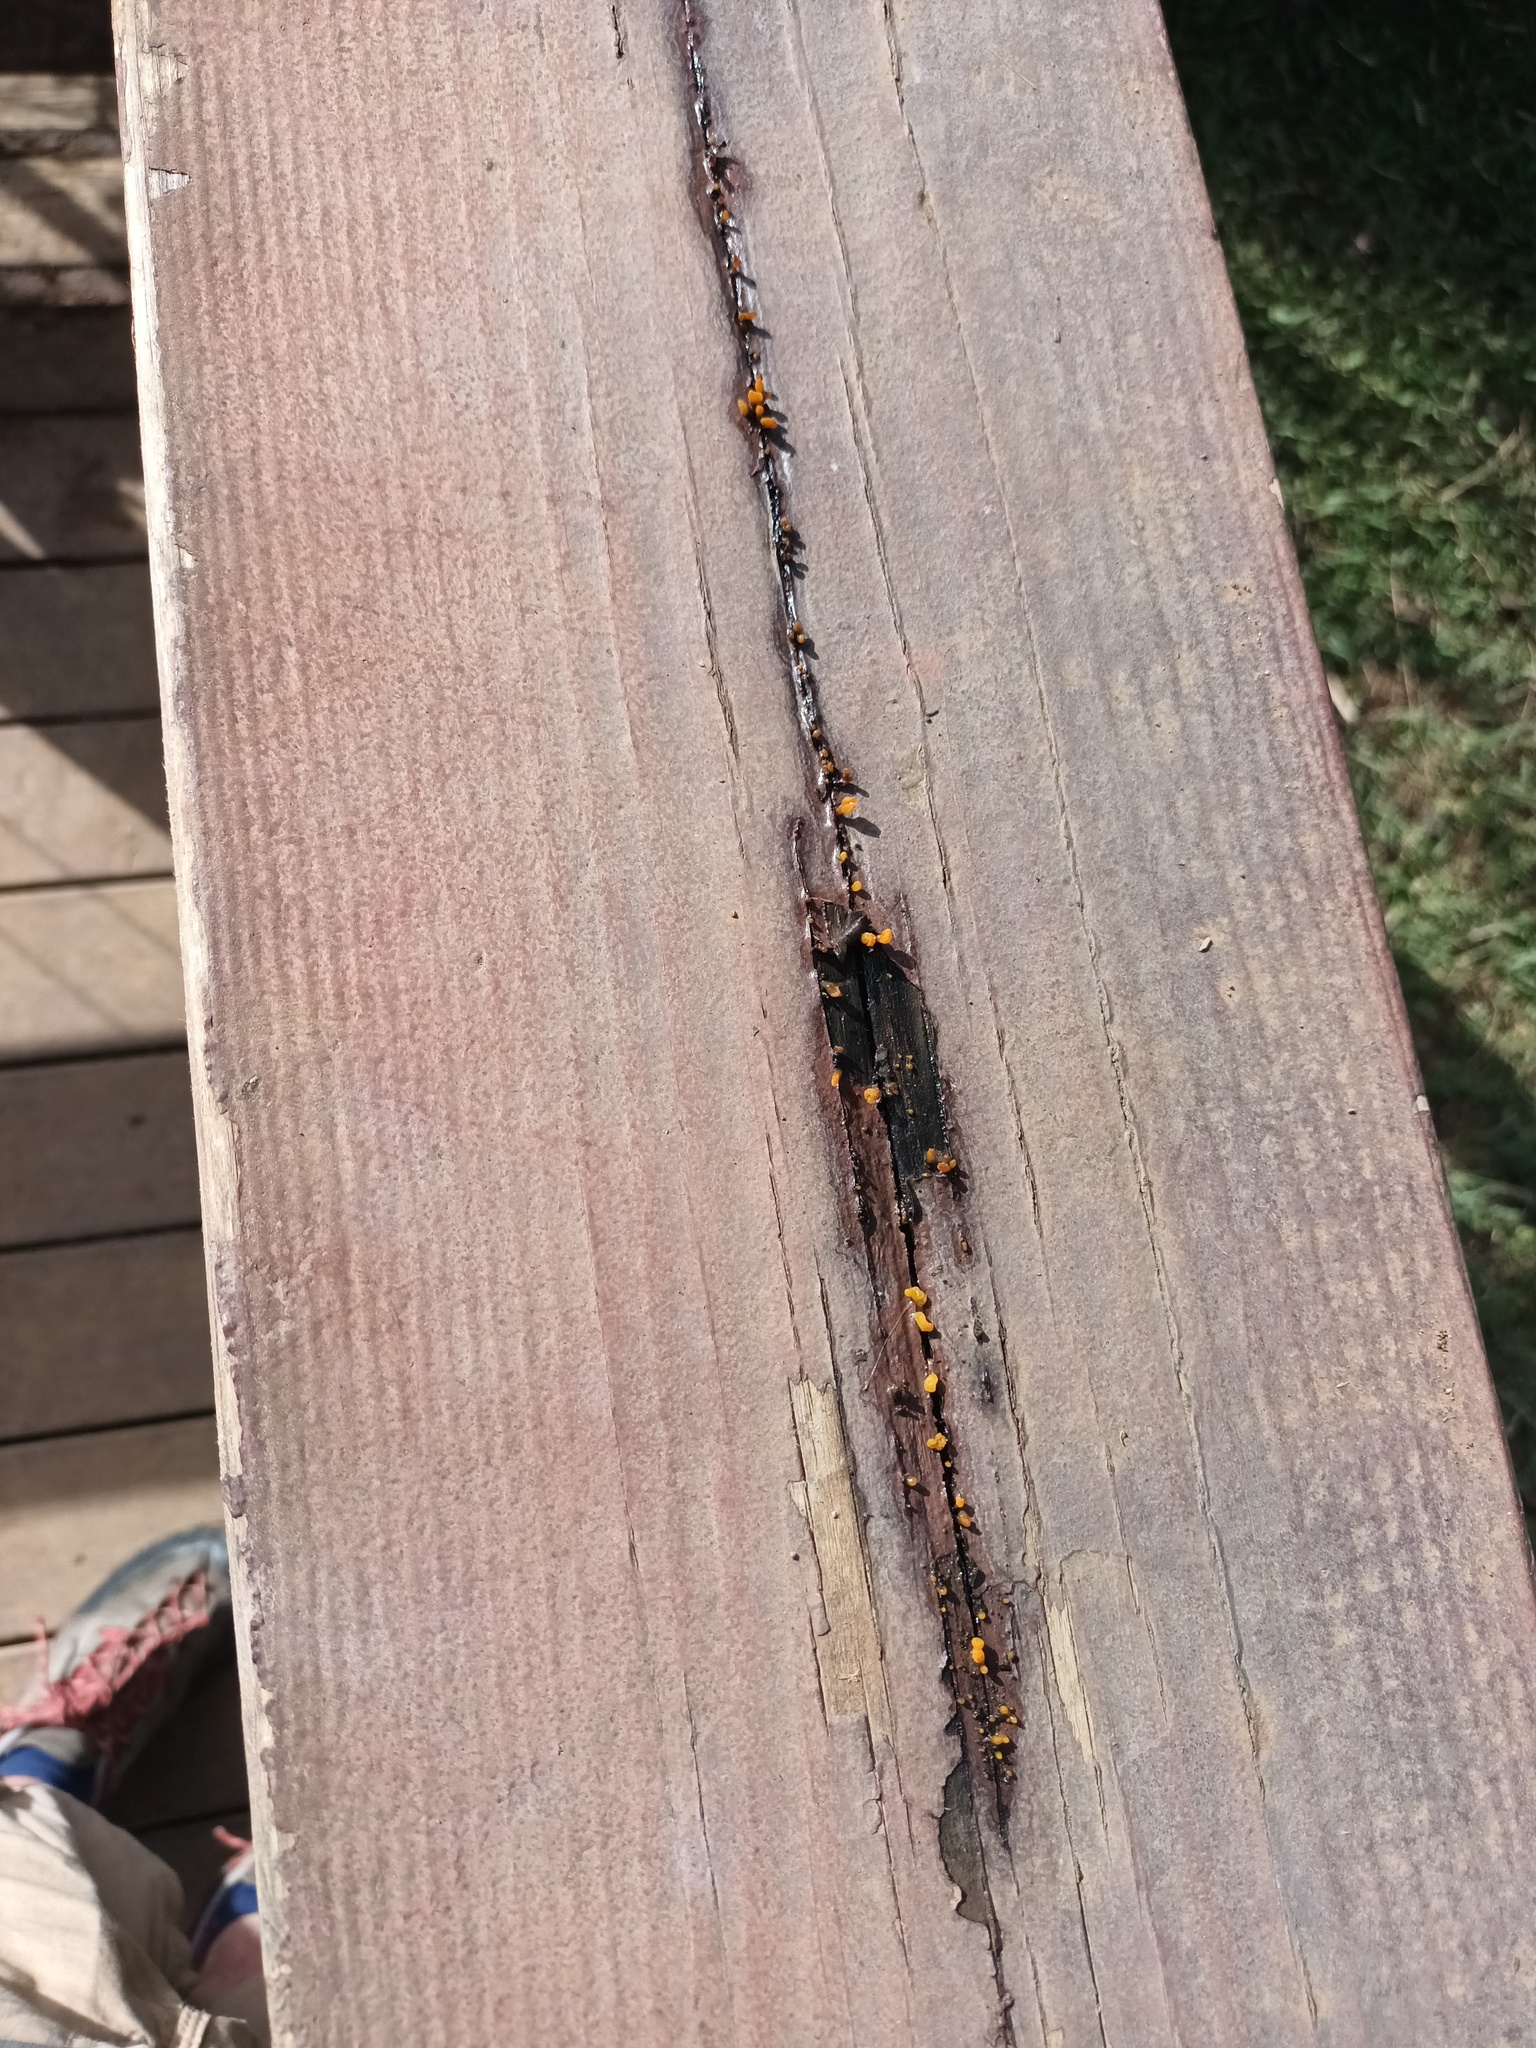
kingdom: Fungi
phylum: Basidiomycota
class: Dacrymycetes
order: Dacrymycetales
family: Dacrymycetaceae
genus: Dacrymyces
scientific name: Dacrymyces spathularius
